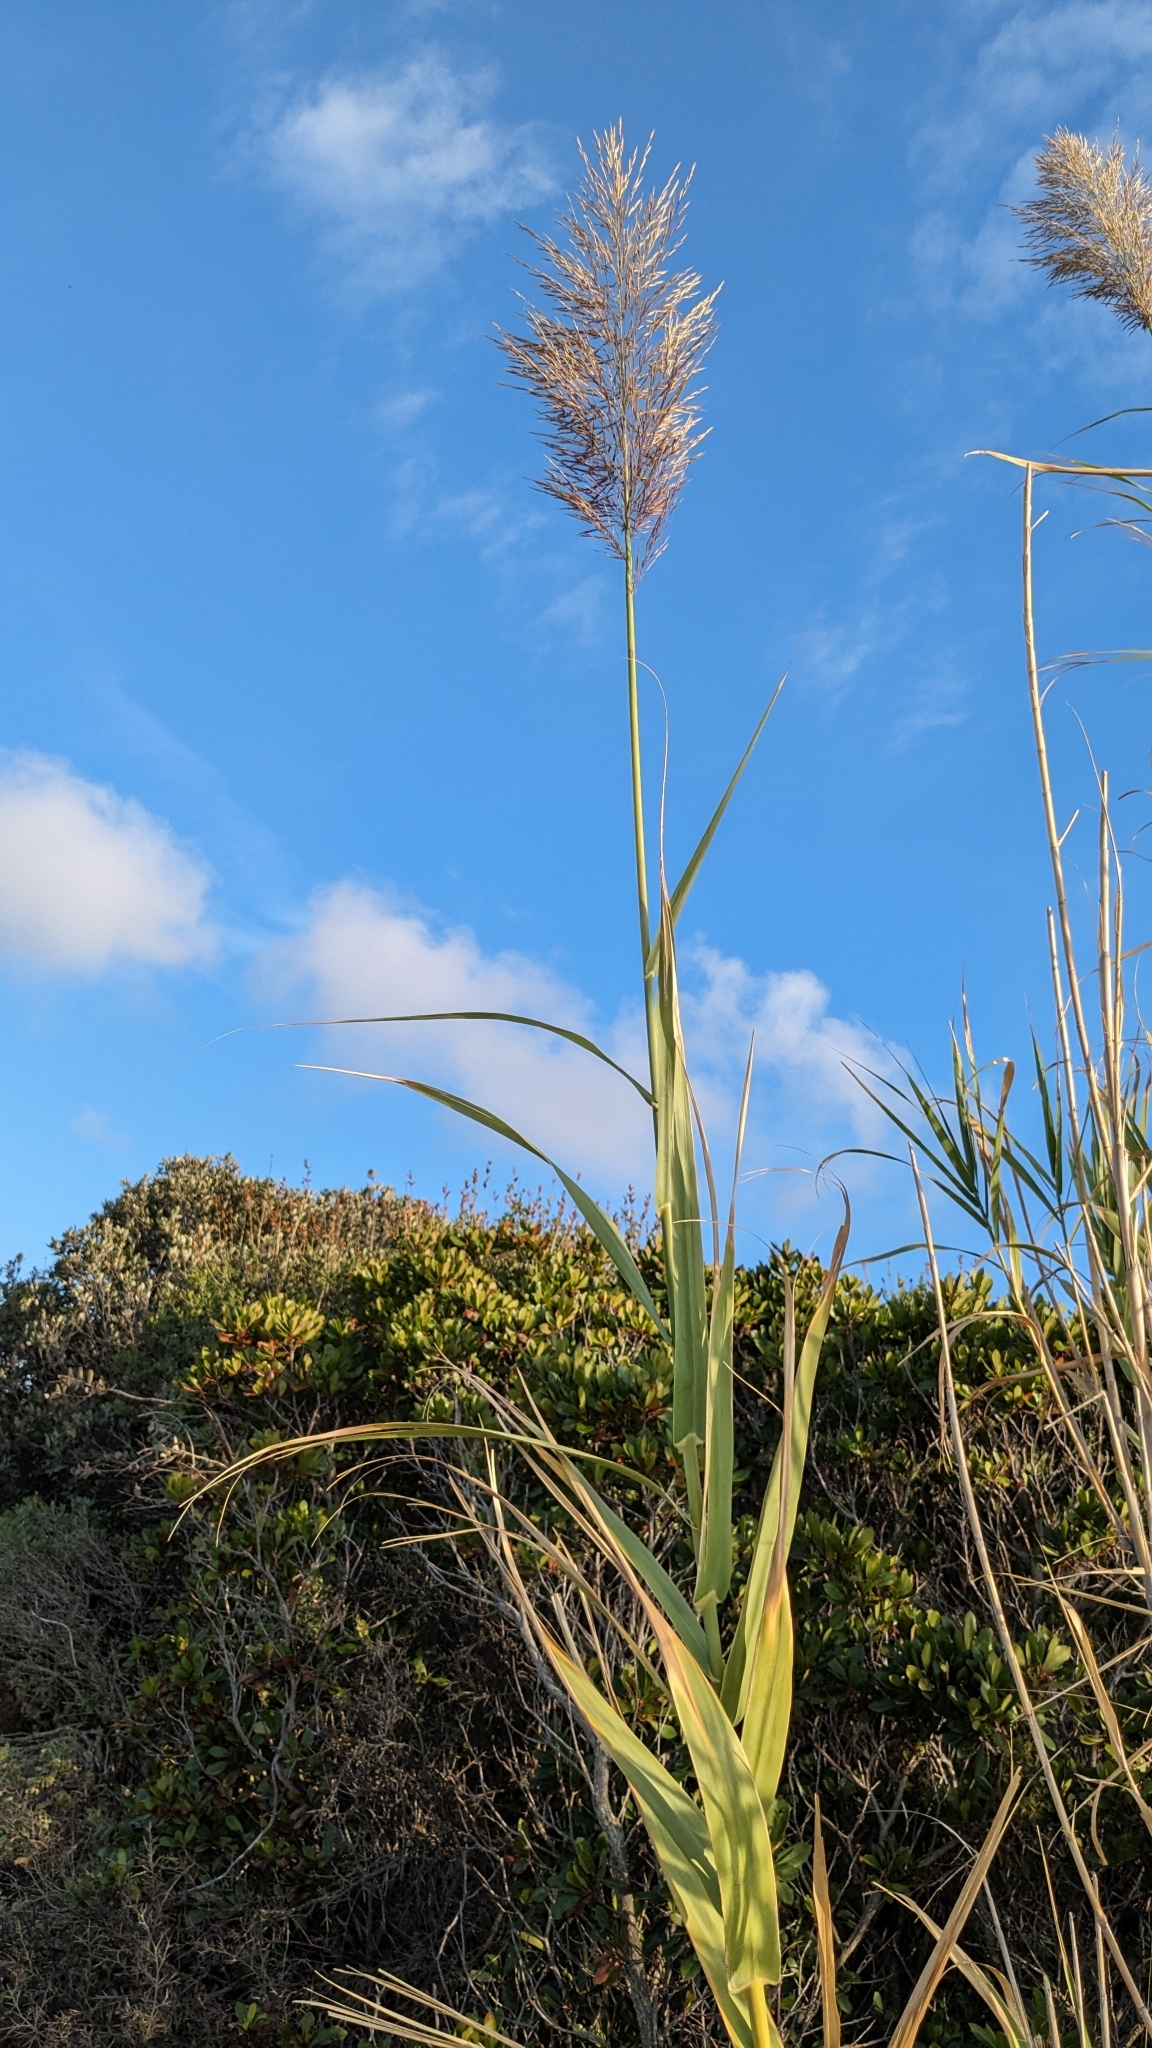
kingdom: Plantae
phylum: Tracheophyta
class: Liliopsida
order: Poales
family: Poaceae
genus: Arundo
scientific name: Arundo donax
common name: Giant reed
